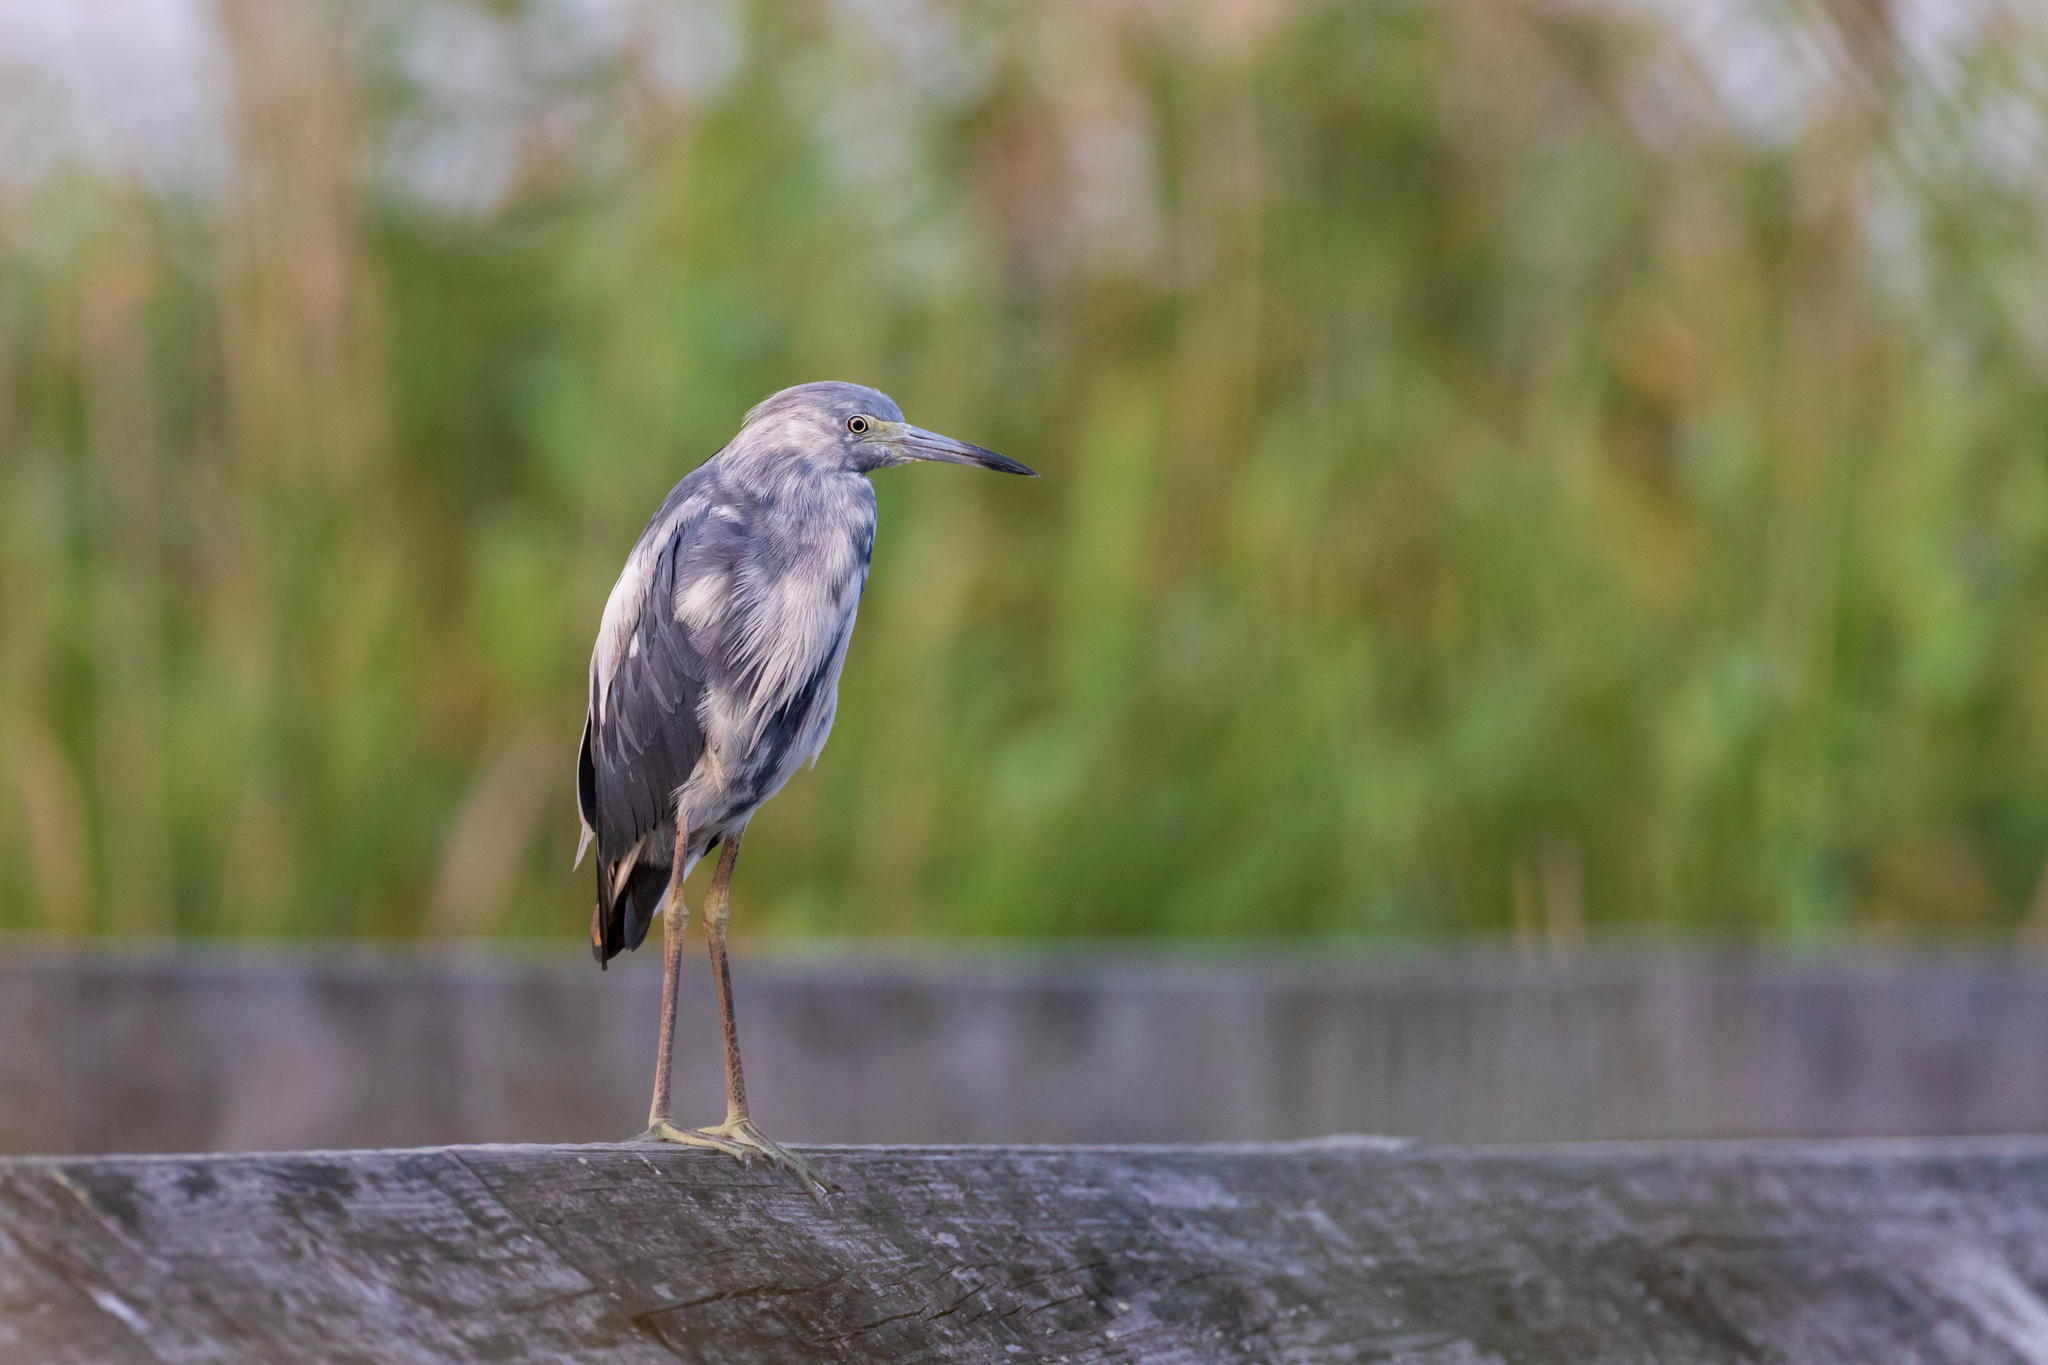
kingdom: Animalia
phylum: Chordata
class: Aves
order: Pelecaniformes
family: Ardeidae
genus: Egretta
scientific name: Egretta caerulea
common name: Little blue heron
